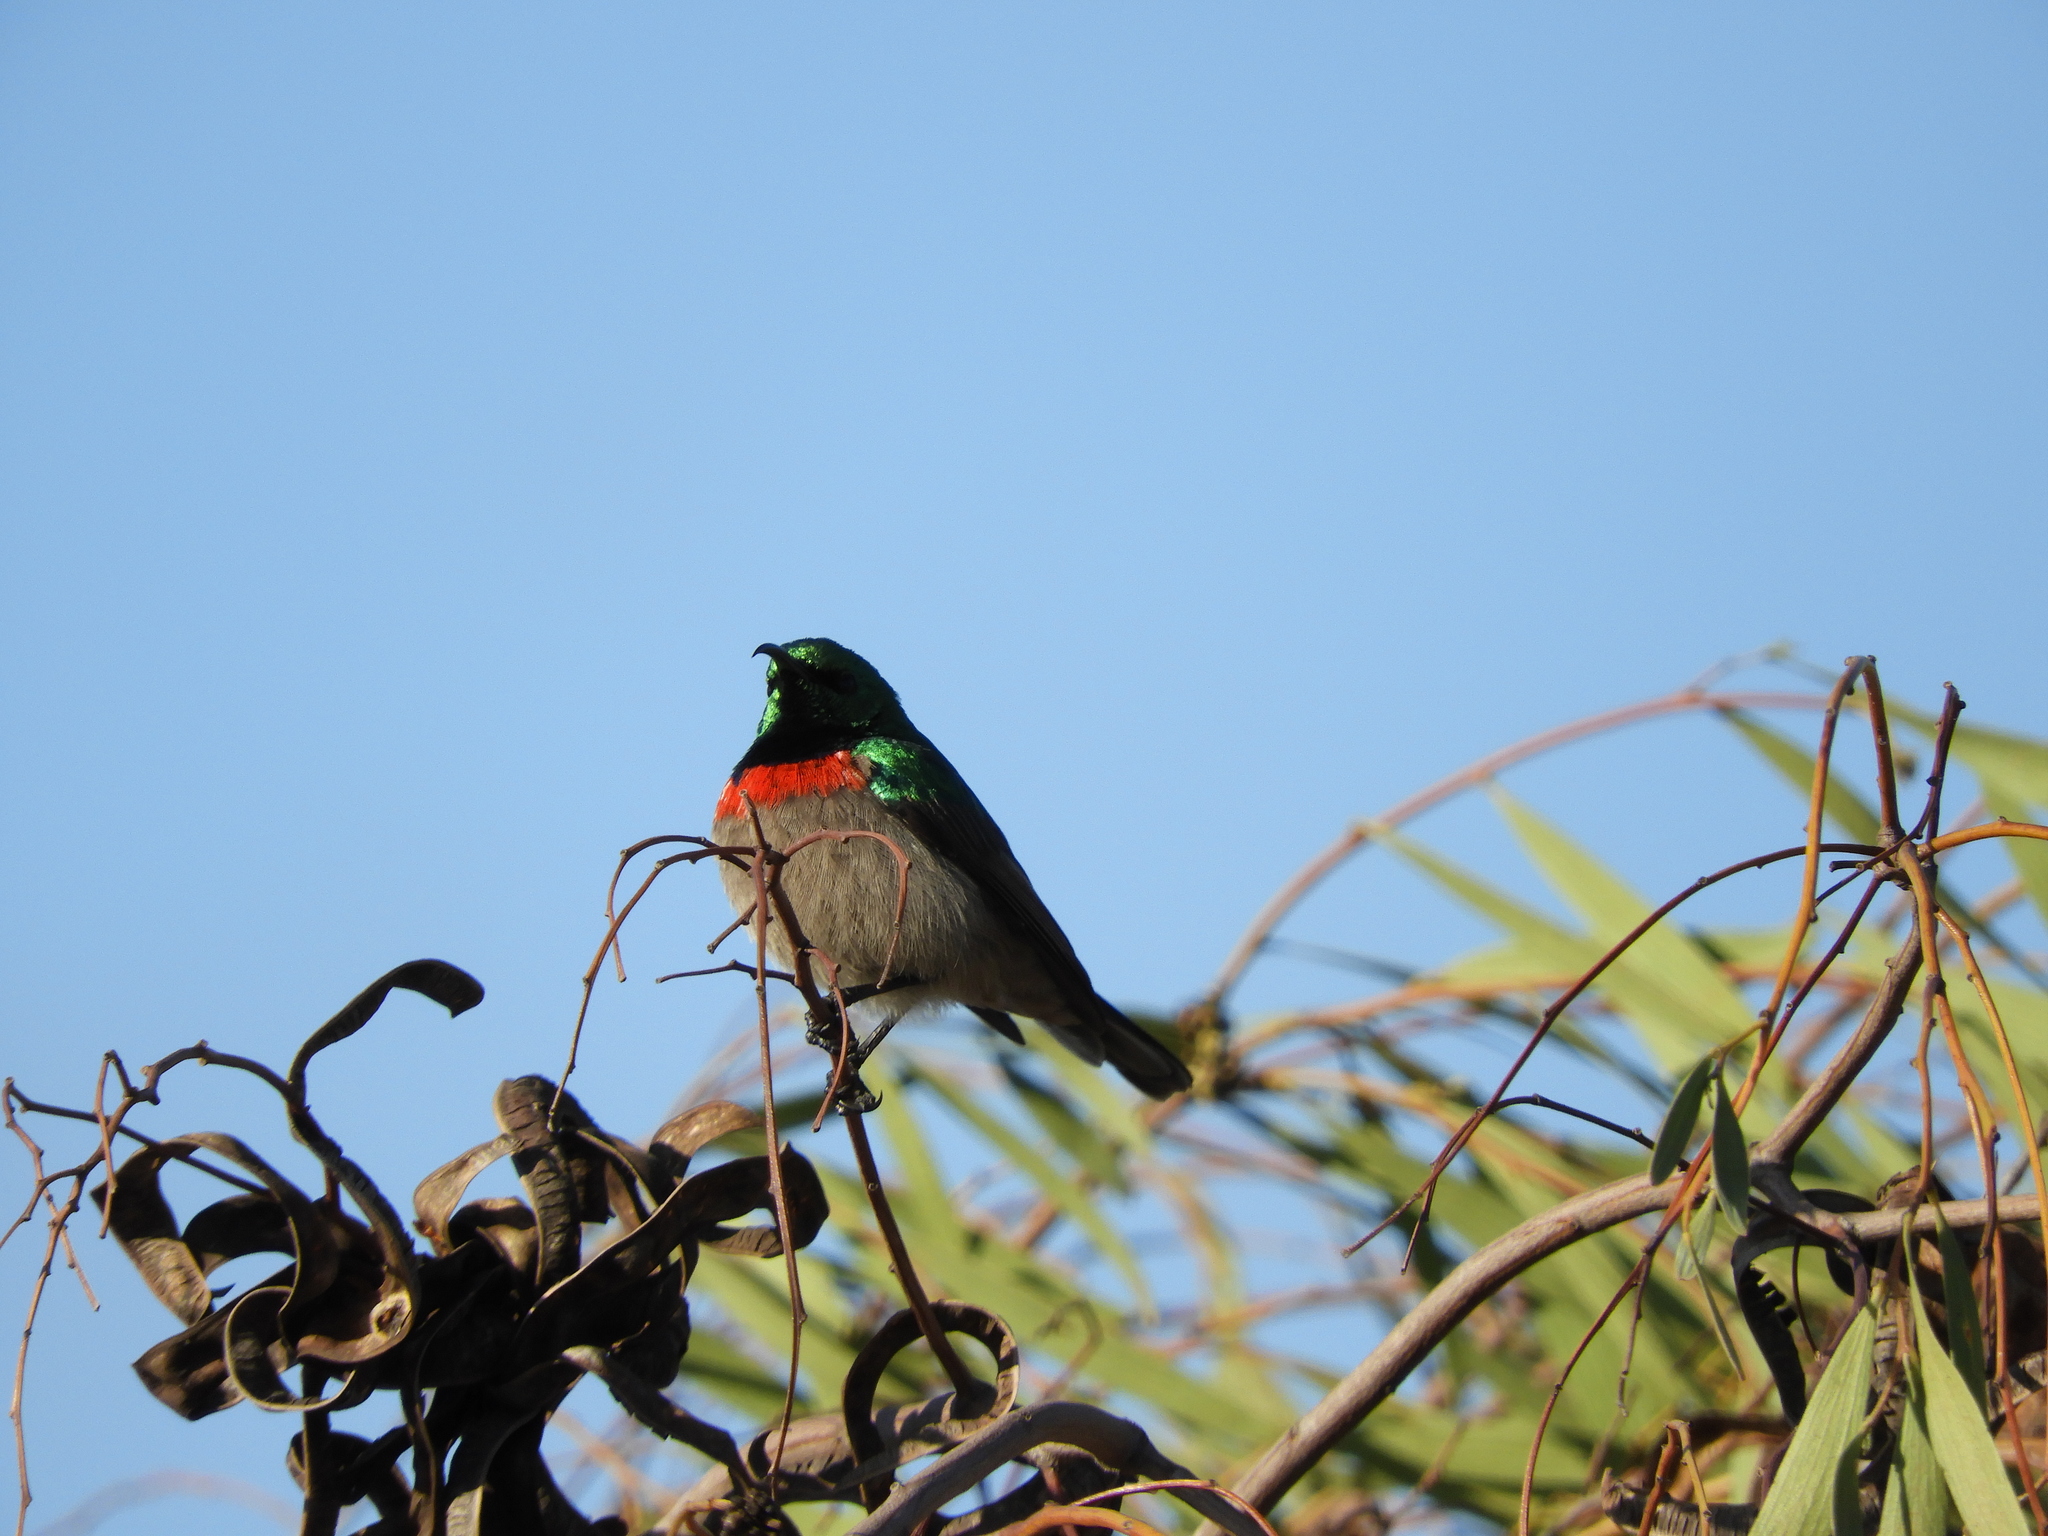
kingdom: Animalia
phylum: Chordata
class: Aves
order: Passeriformes
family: Nectariniidae
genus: Cinnyris
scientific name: Cinnyris chalybeus
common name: Southern double-collared sunbird
